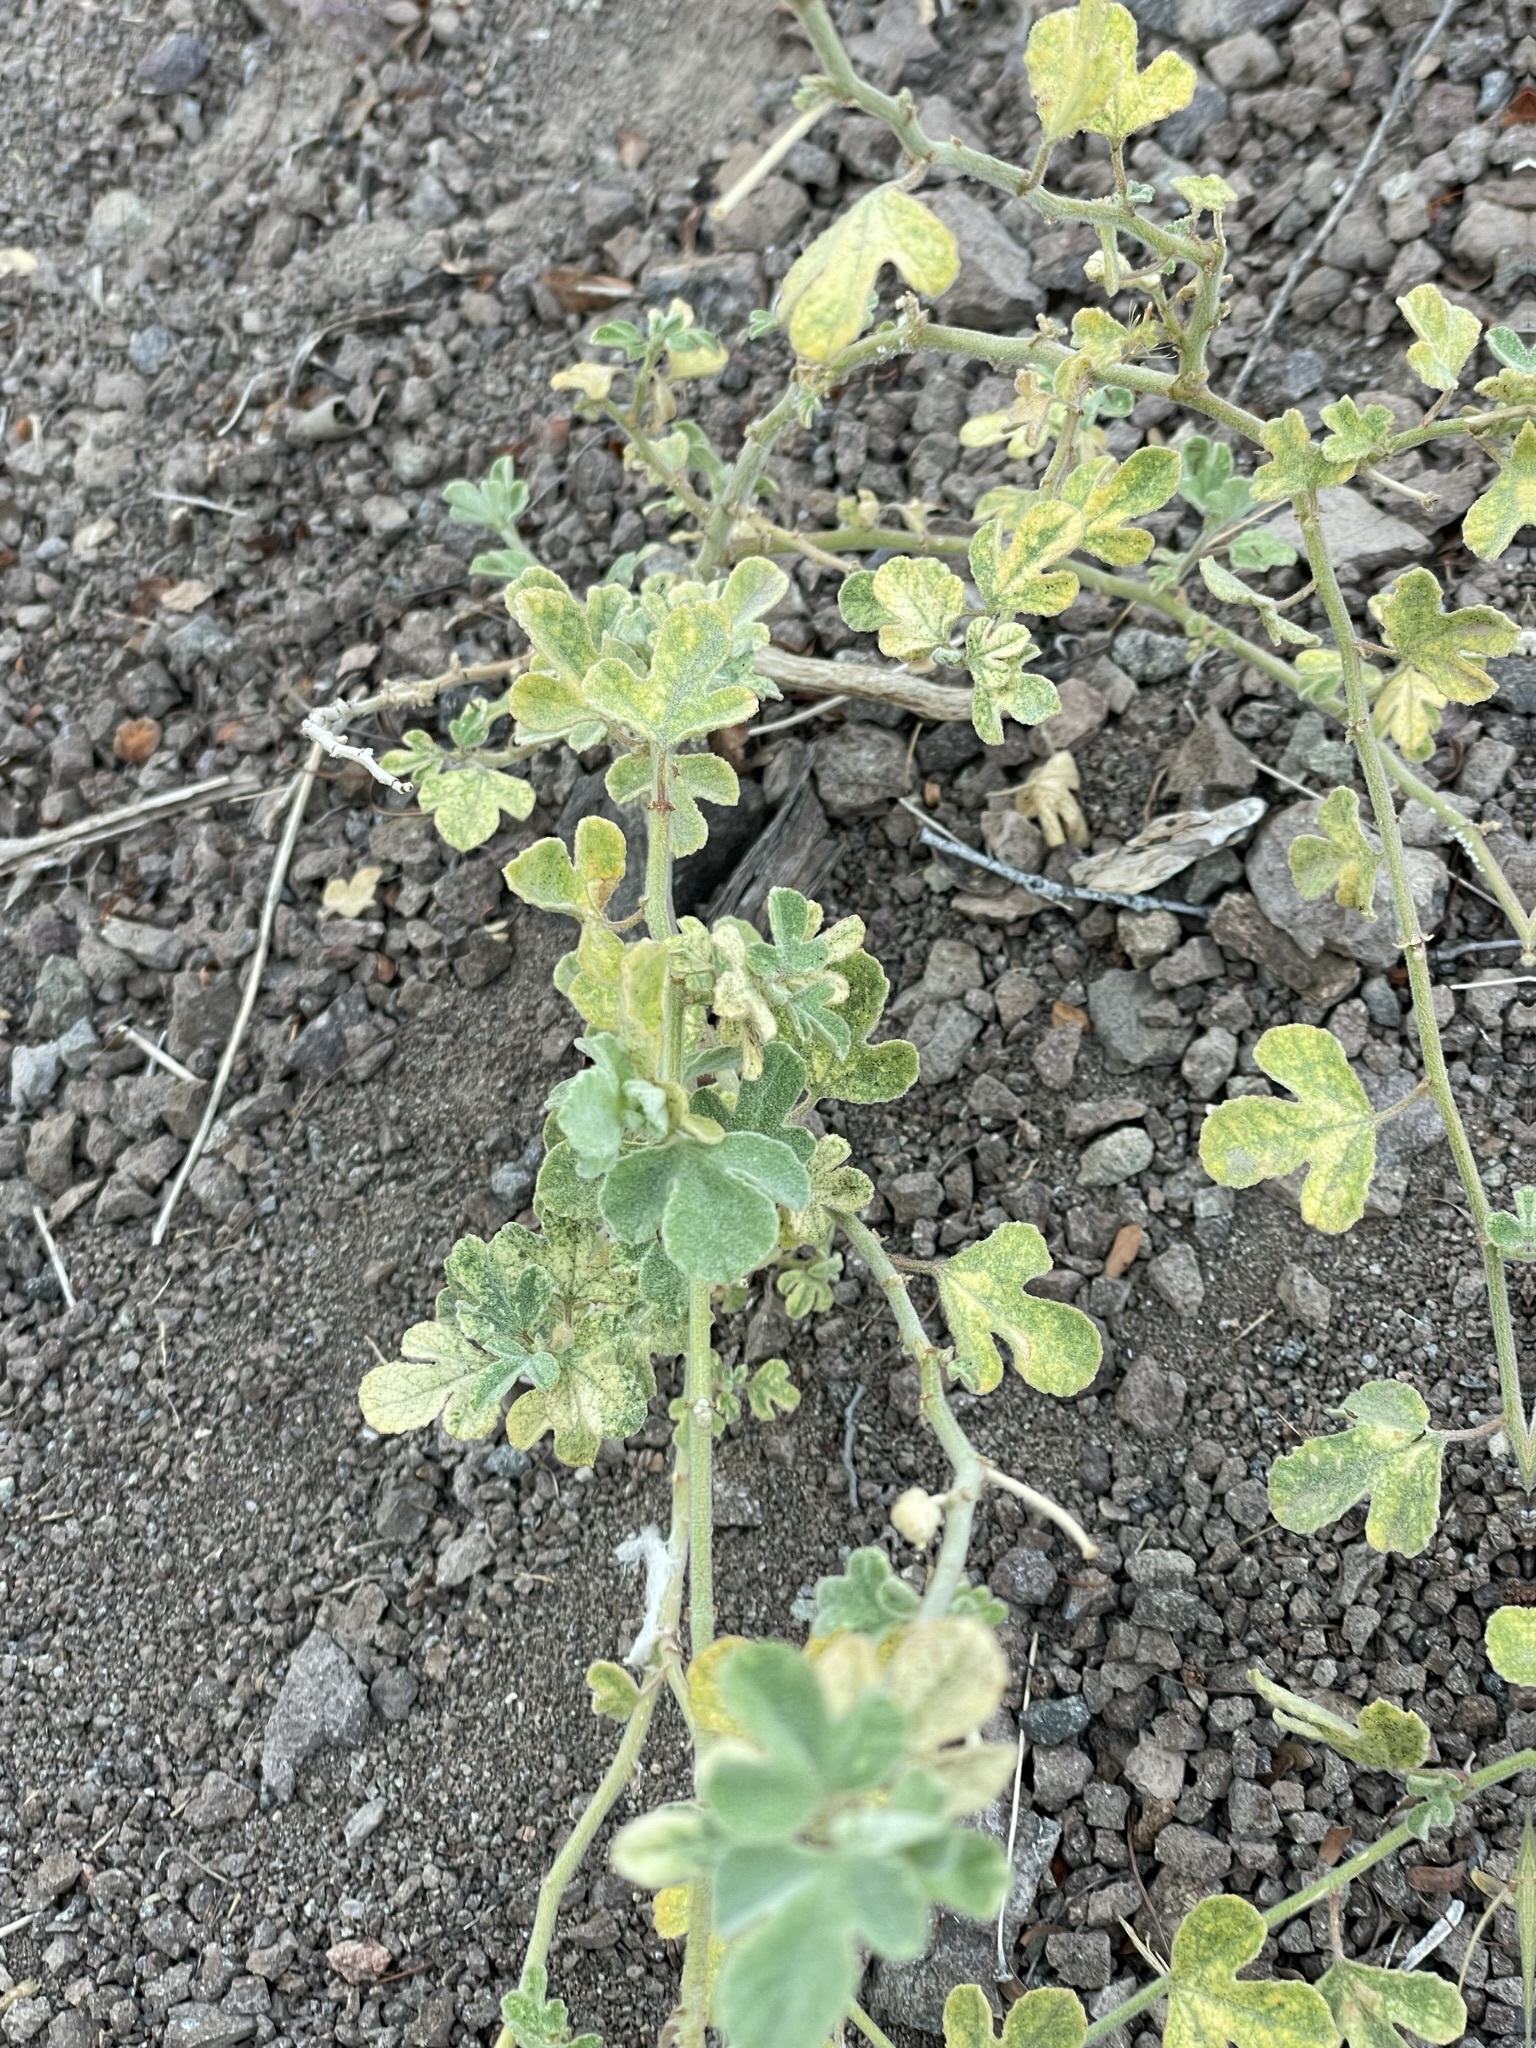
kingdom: Plantae
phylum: Tracheophyta
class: Magnoliopsida
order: Malpighiales
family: Passifloraceae
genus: Passiflora
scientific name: Passiflora arida
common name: Desert passionflower
